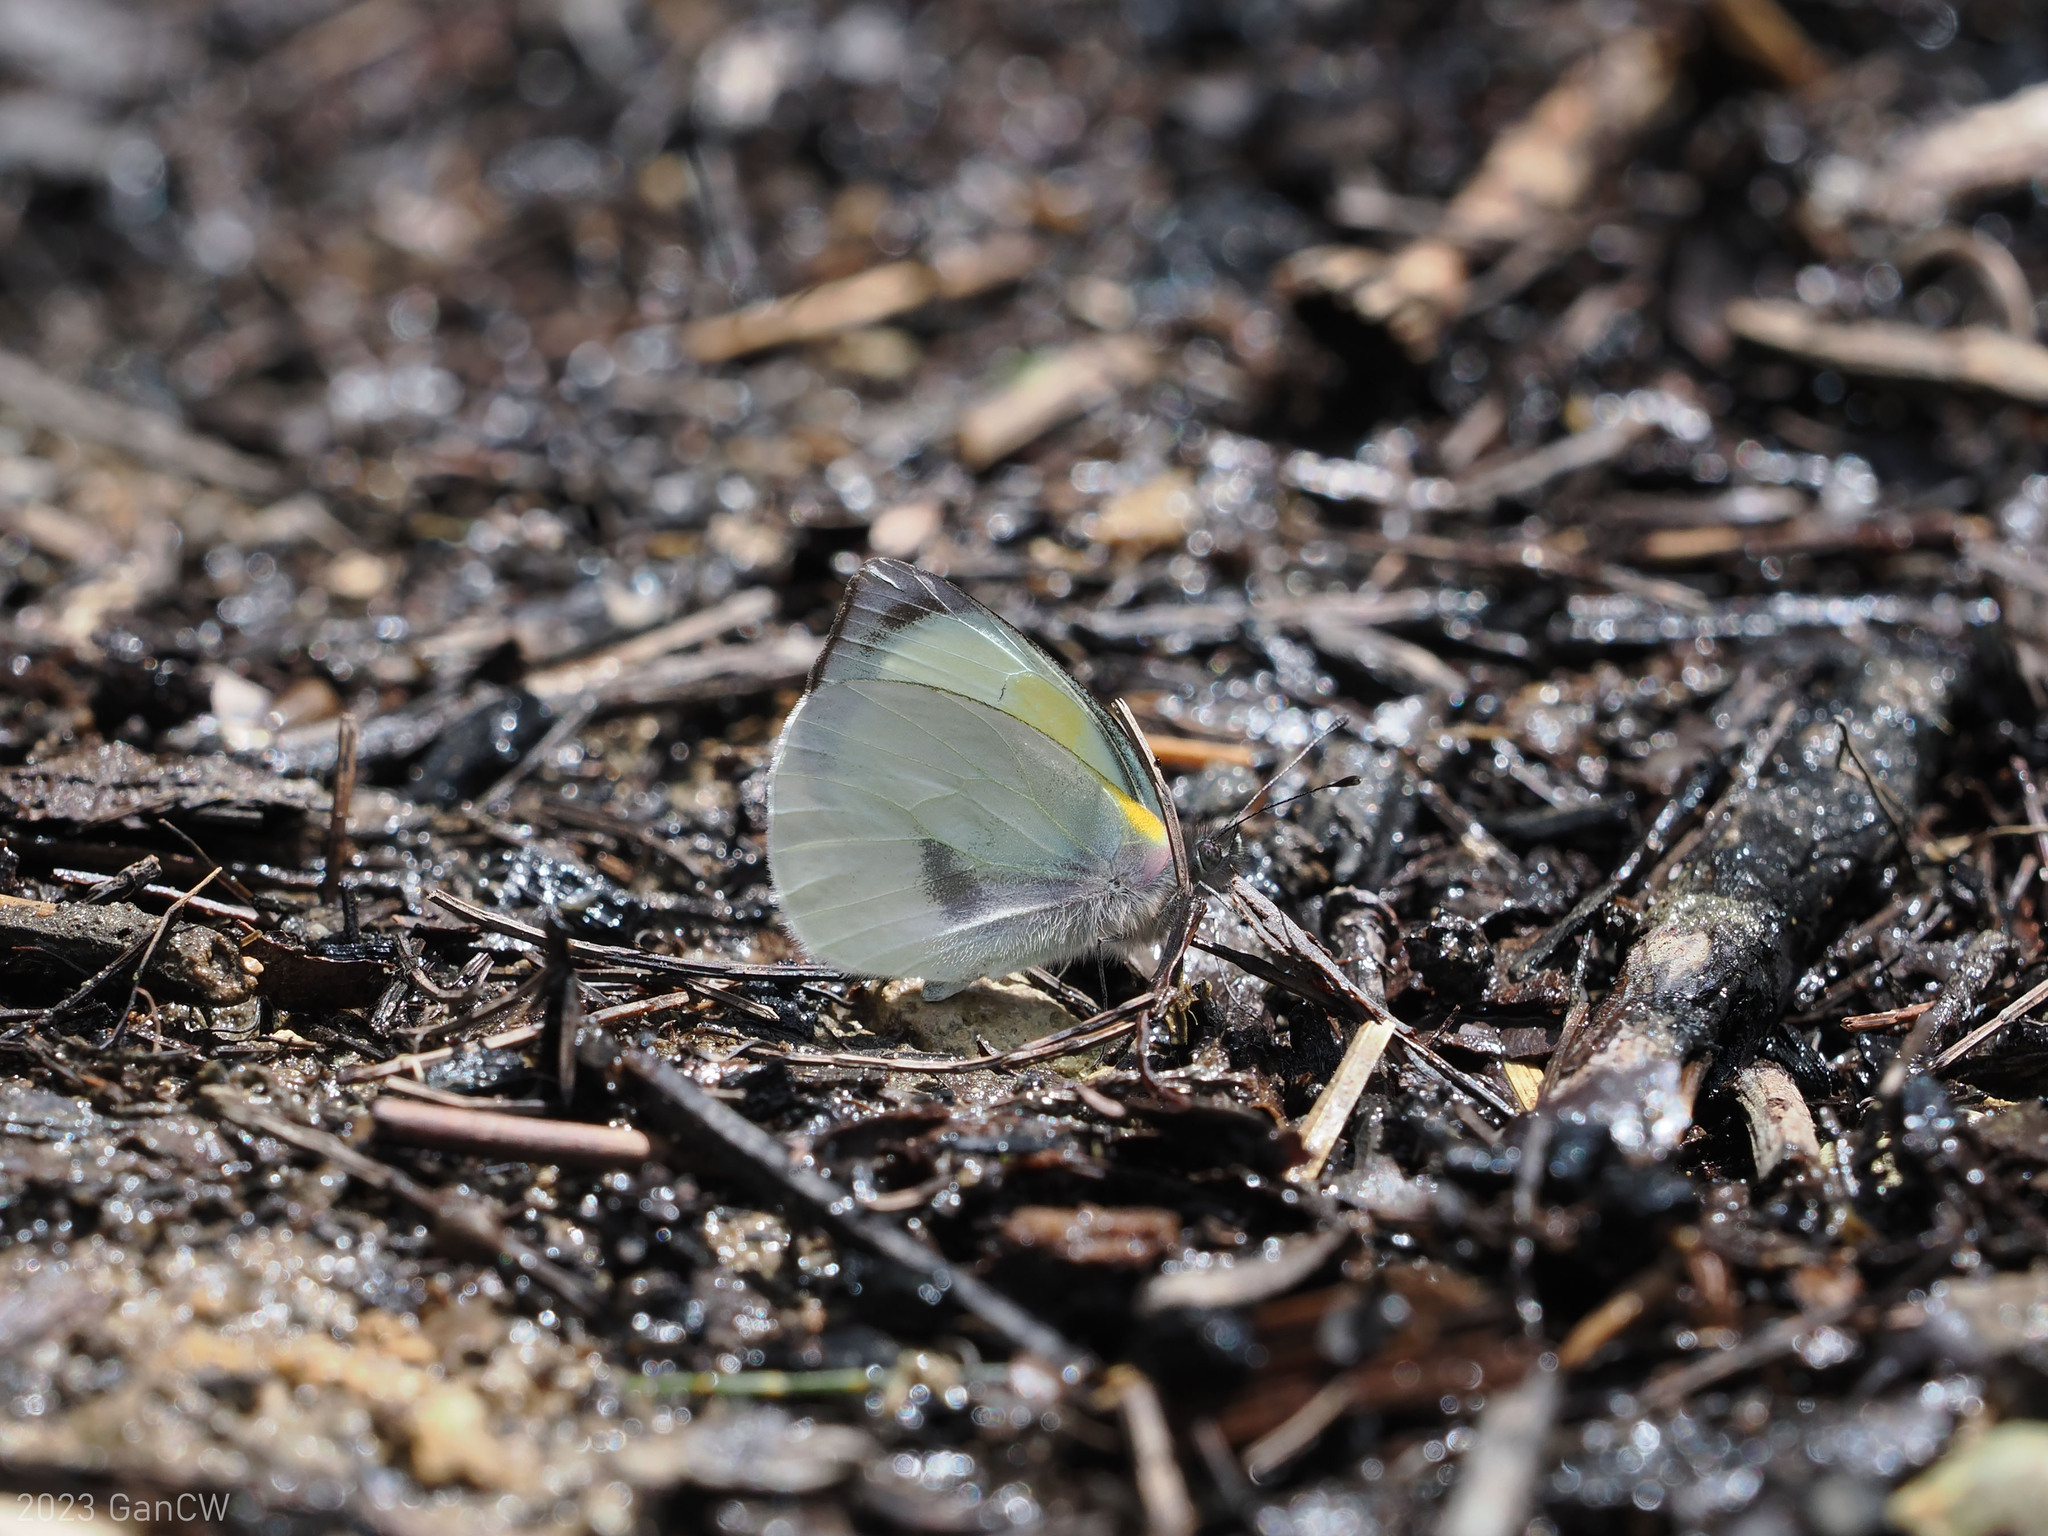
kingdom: Animalia
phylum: Arthropoda
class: Insecta
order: Lepidoptera
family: Pieridae
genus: Leuciacria
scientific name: Leuciacria acuta
